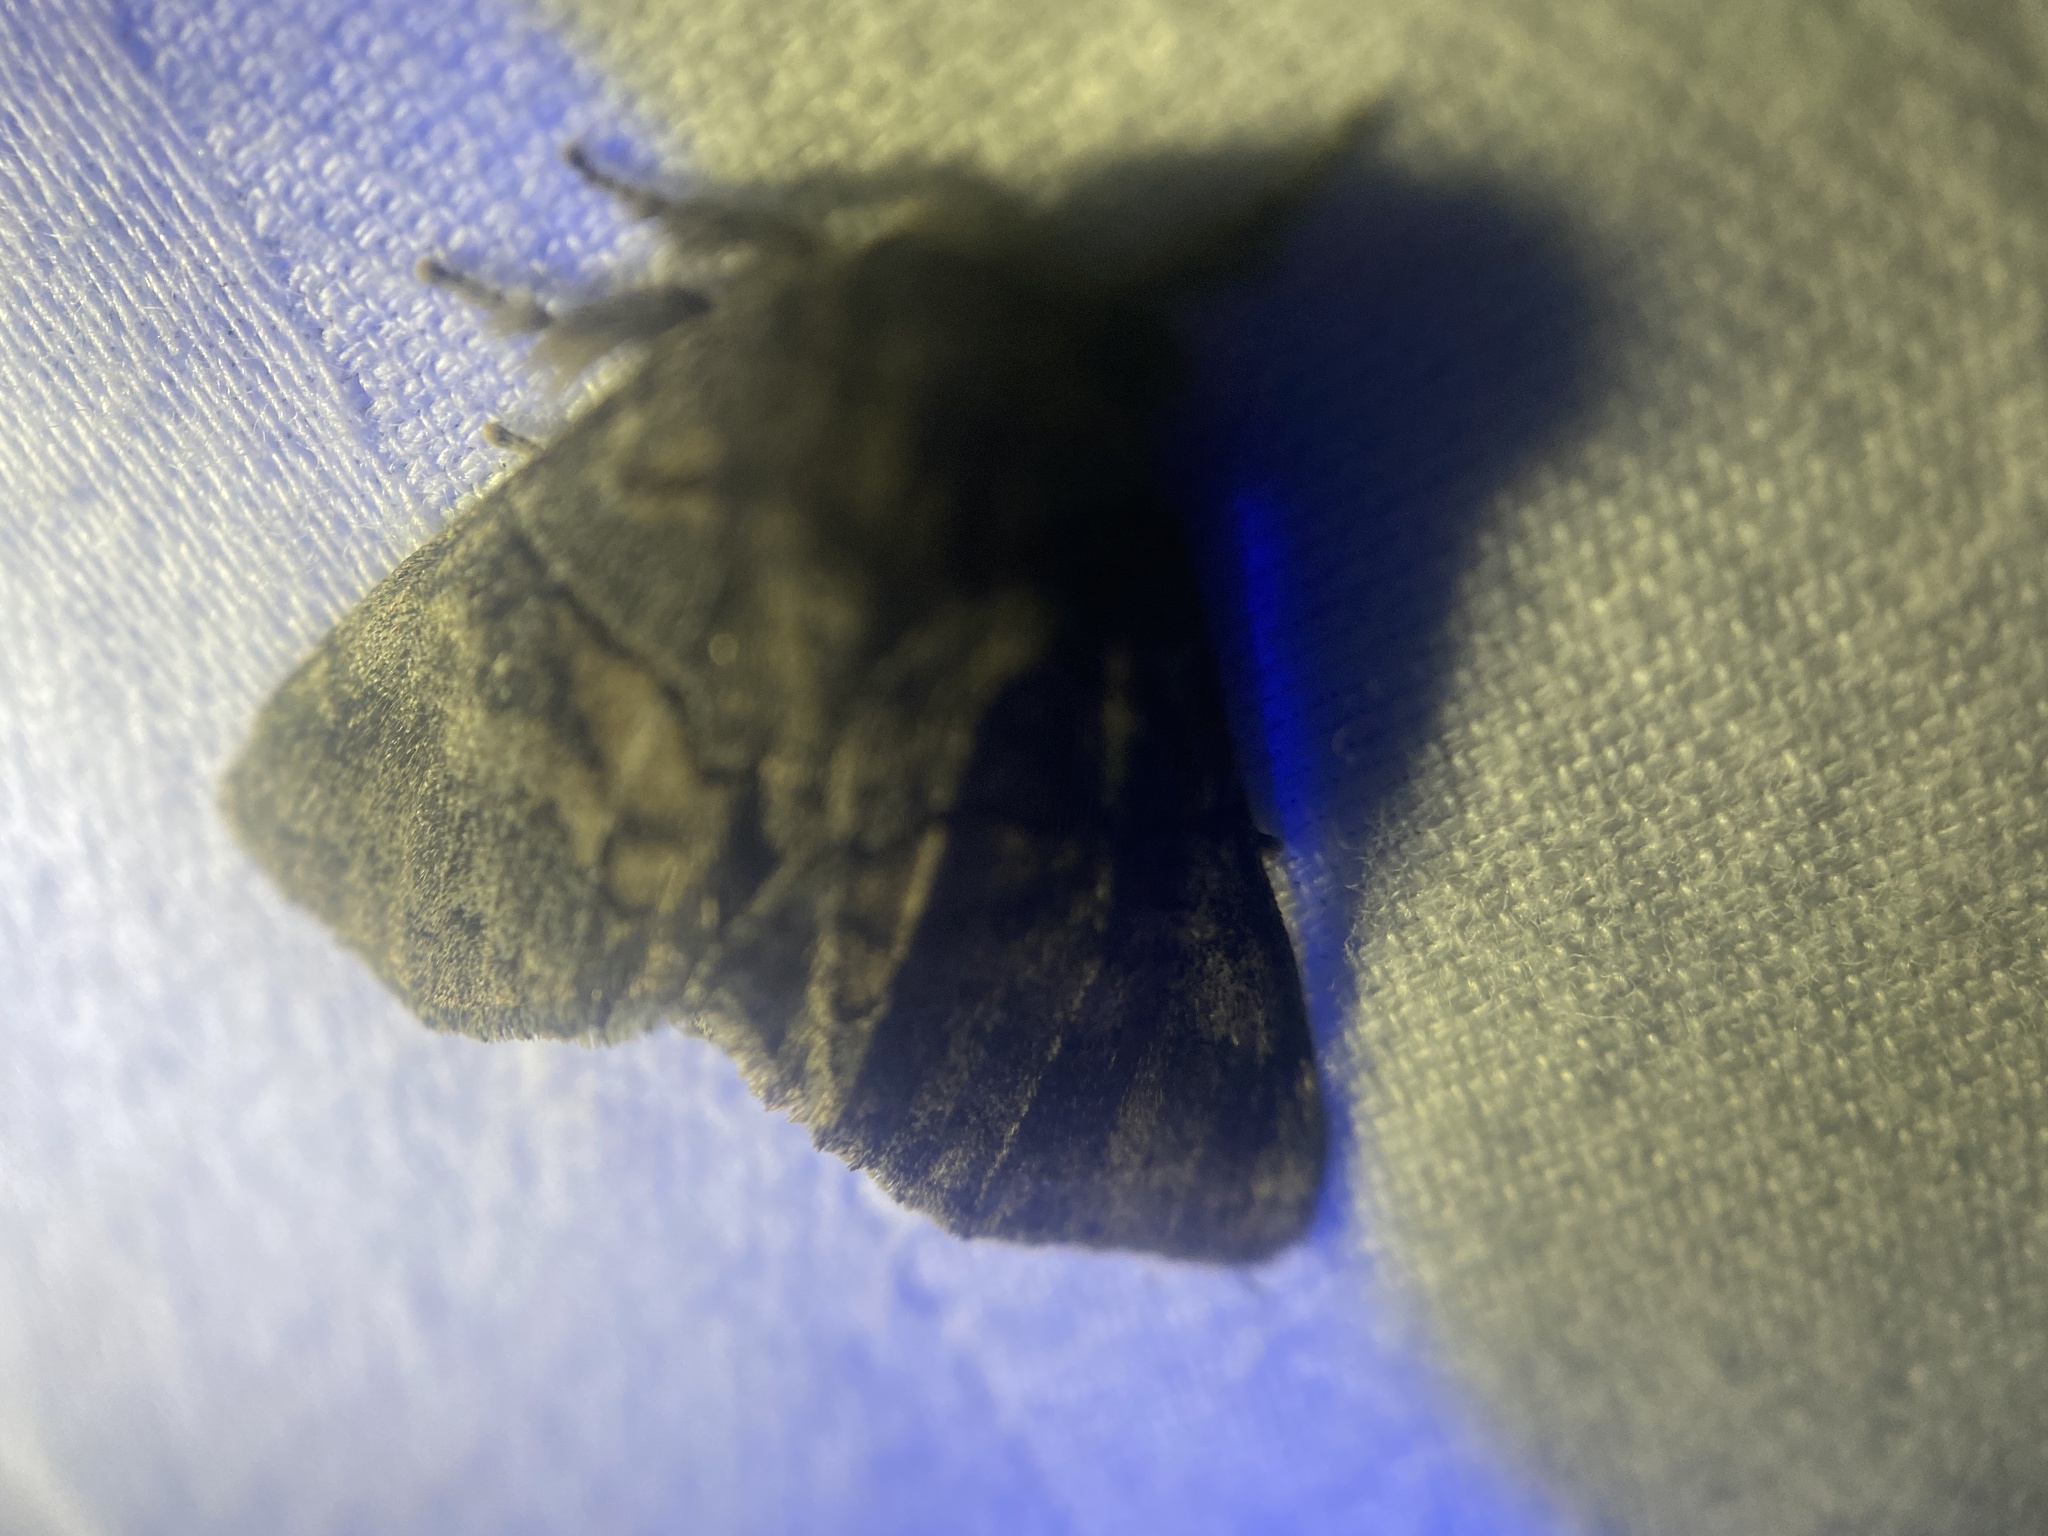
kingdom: Animalia
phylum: Arthropoda
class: Insecta
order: Lepidoptera
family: Notodontidae
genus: Gluphisia
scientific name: Gluphisia septentrionis
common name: Common gluphisia
